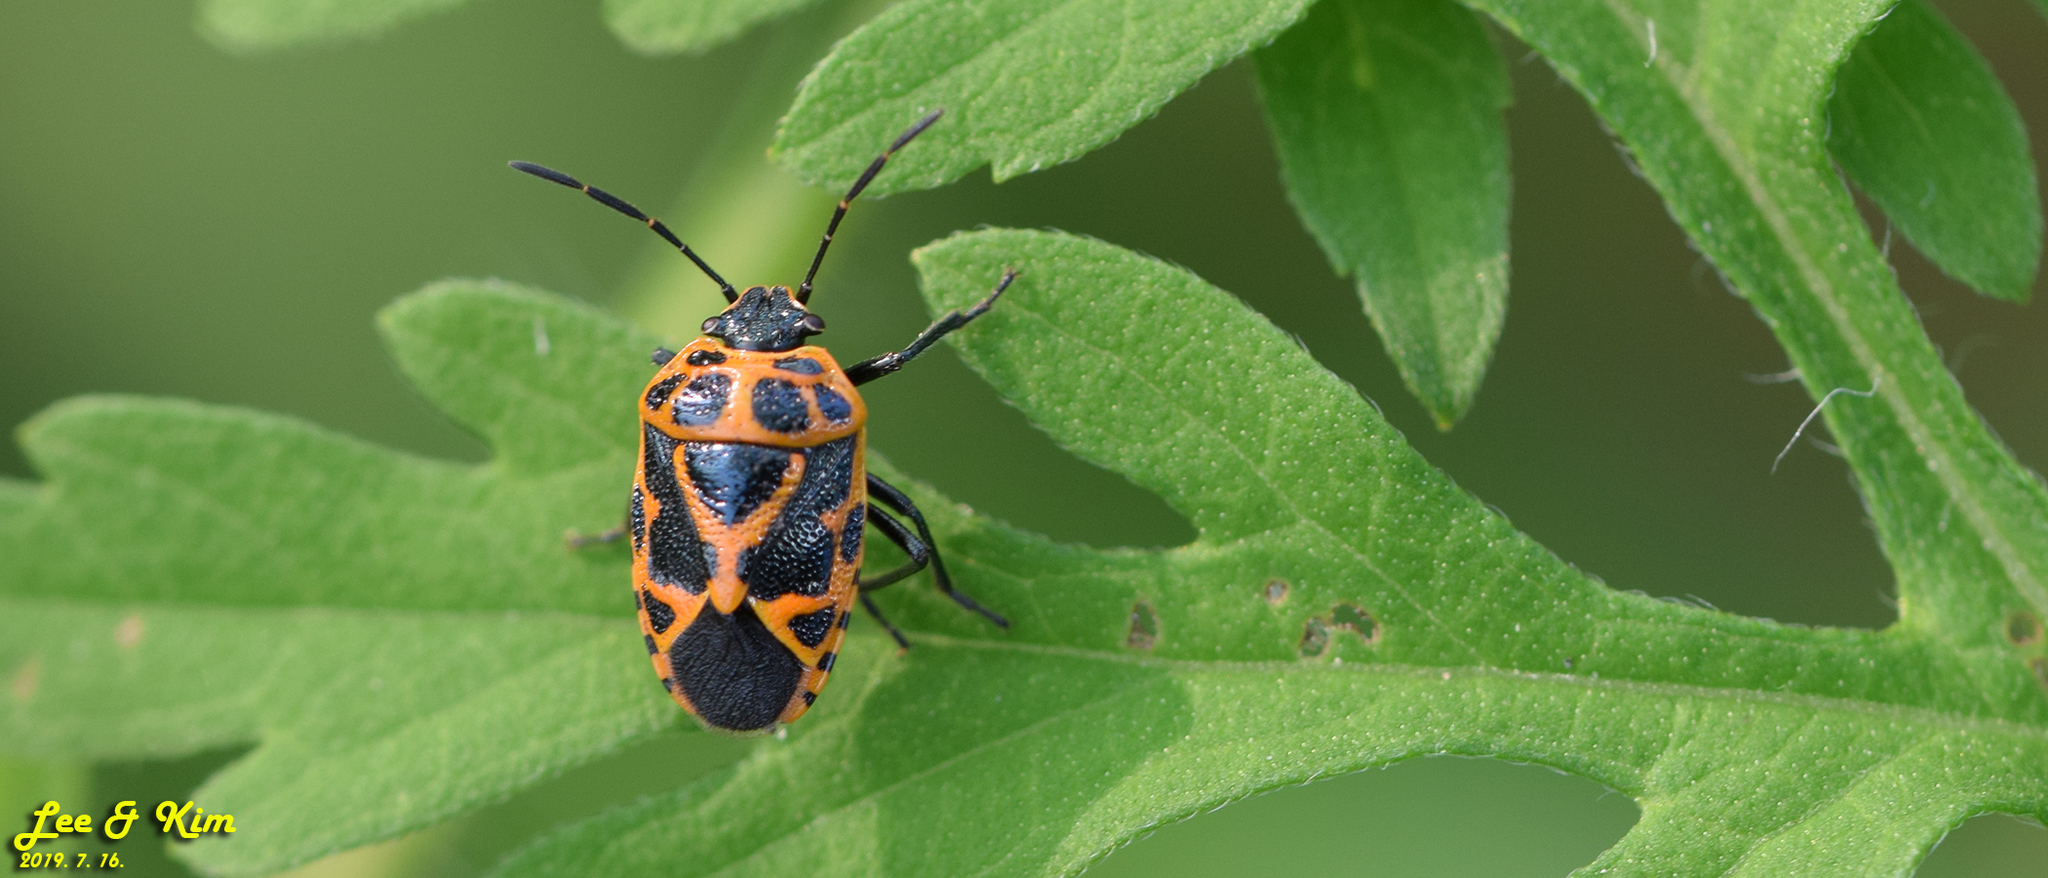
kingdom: Animalia
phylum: Arthropoda
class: Insecta
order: Hemiptera
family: Pentatomidae
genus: Eurydema
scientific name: Eurydema dominulus
